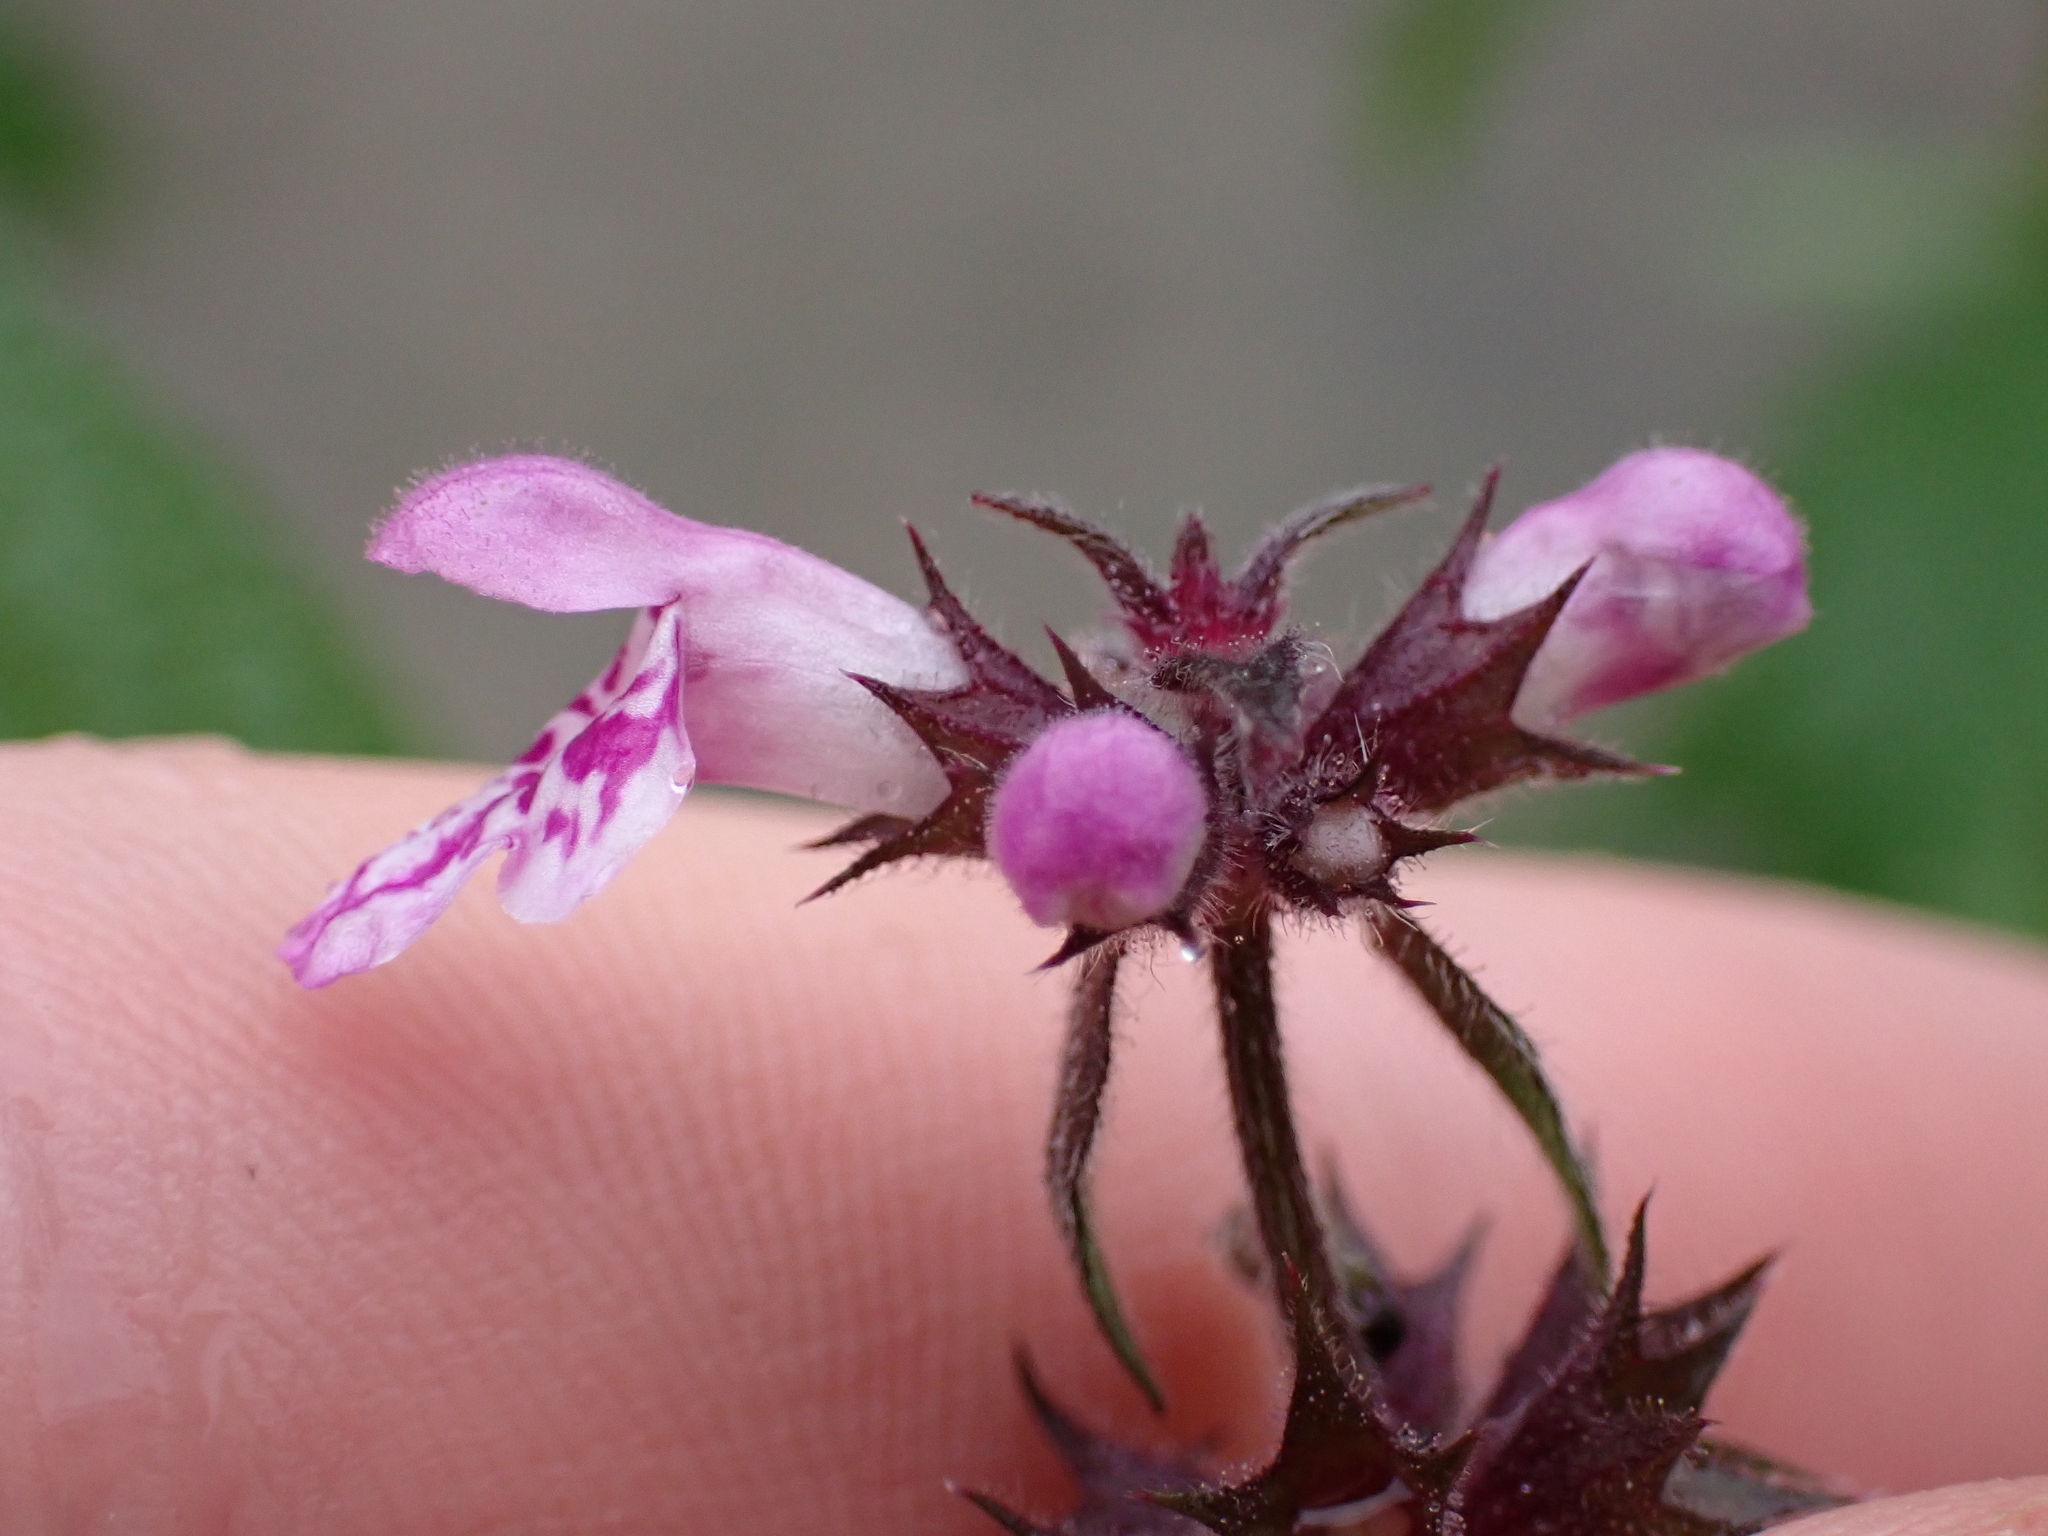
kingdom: Plantae
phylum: Tracheophyta
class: Magnoliopsida
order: Lamiales
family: Lamiaceae
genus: Stachys
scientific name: Stachys palustris
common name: Marsh woundwort
